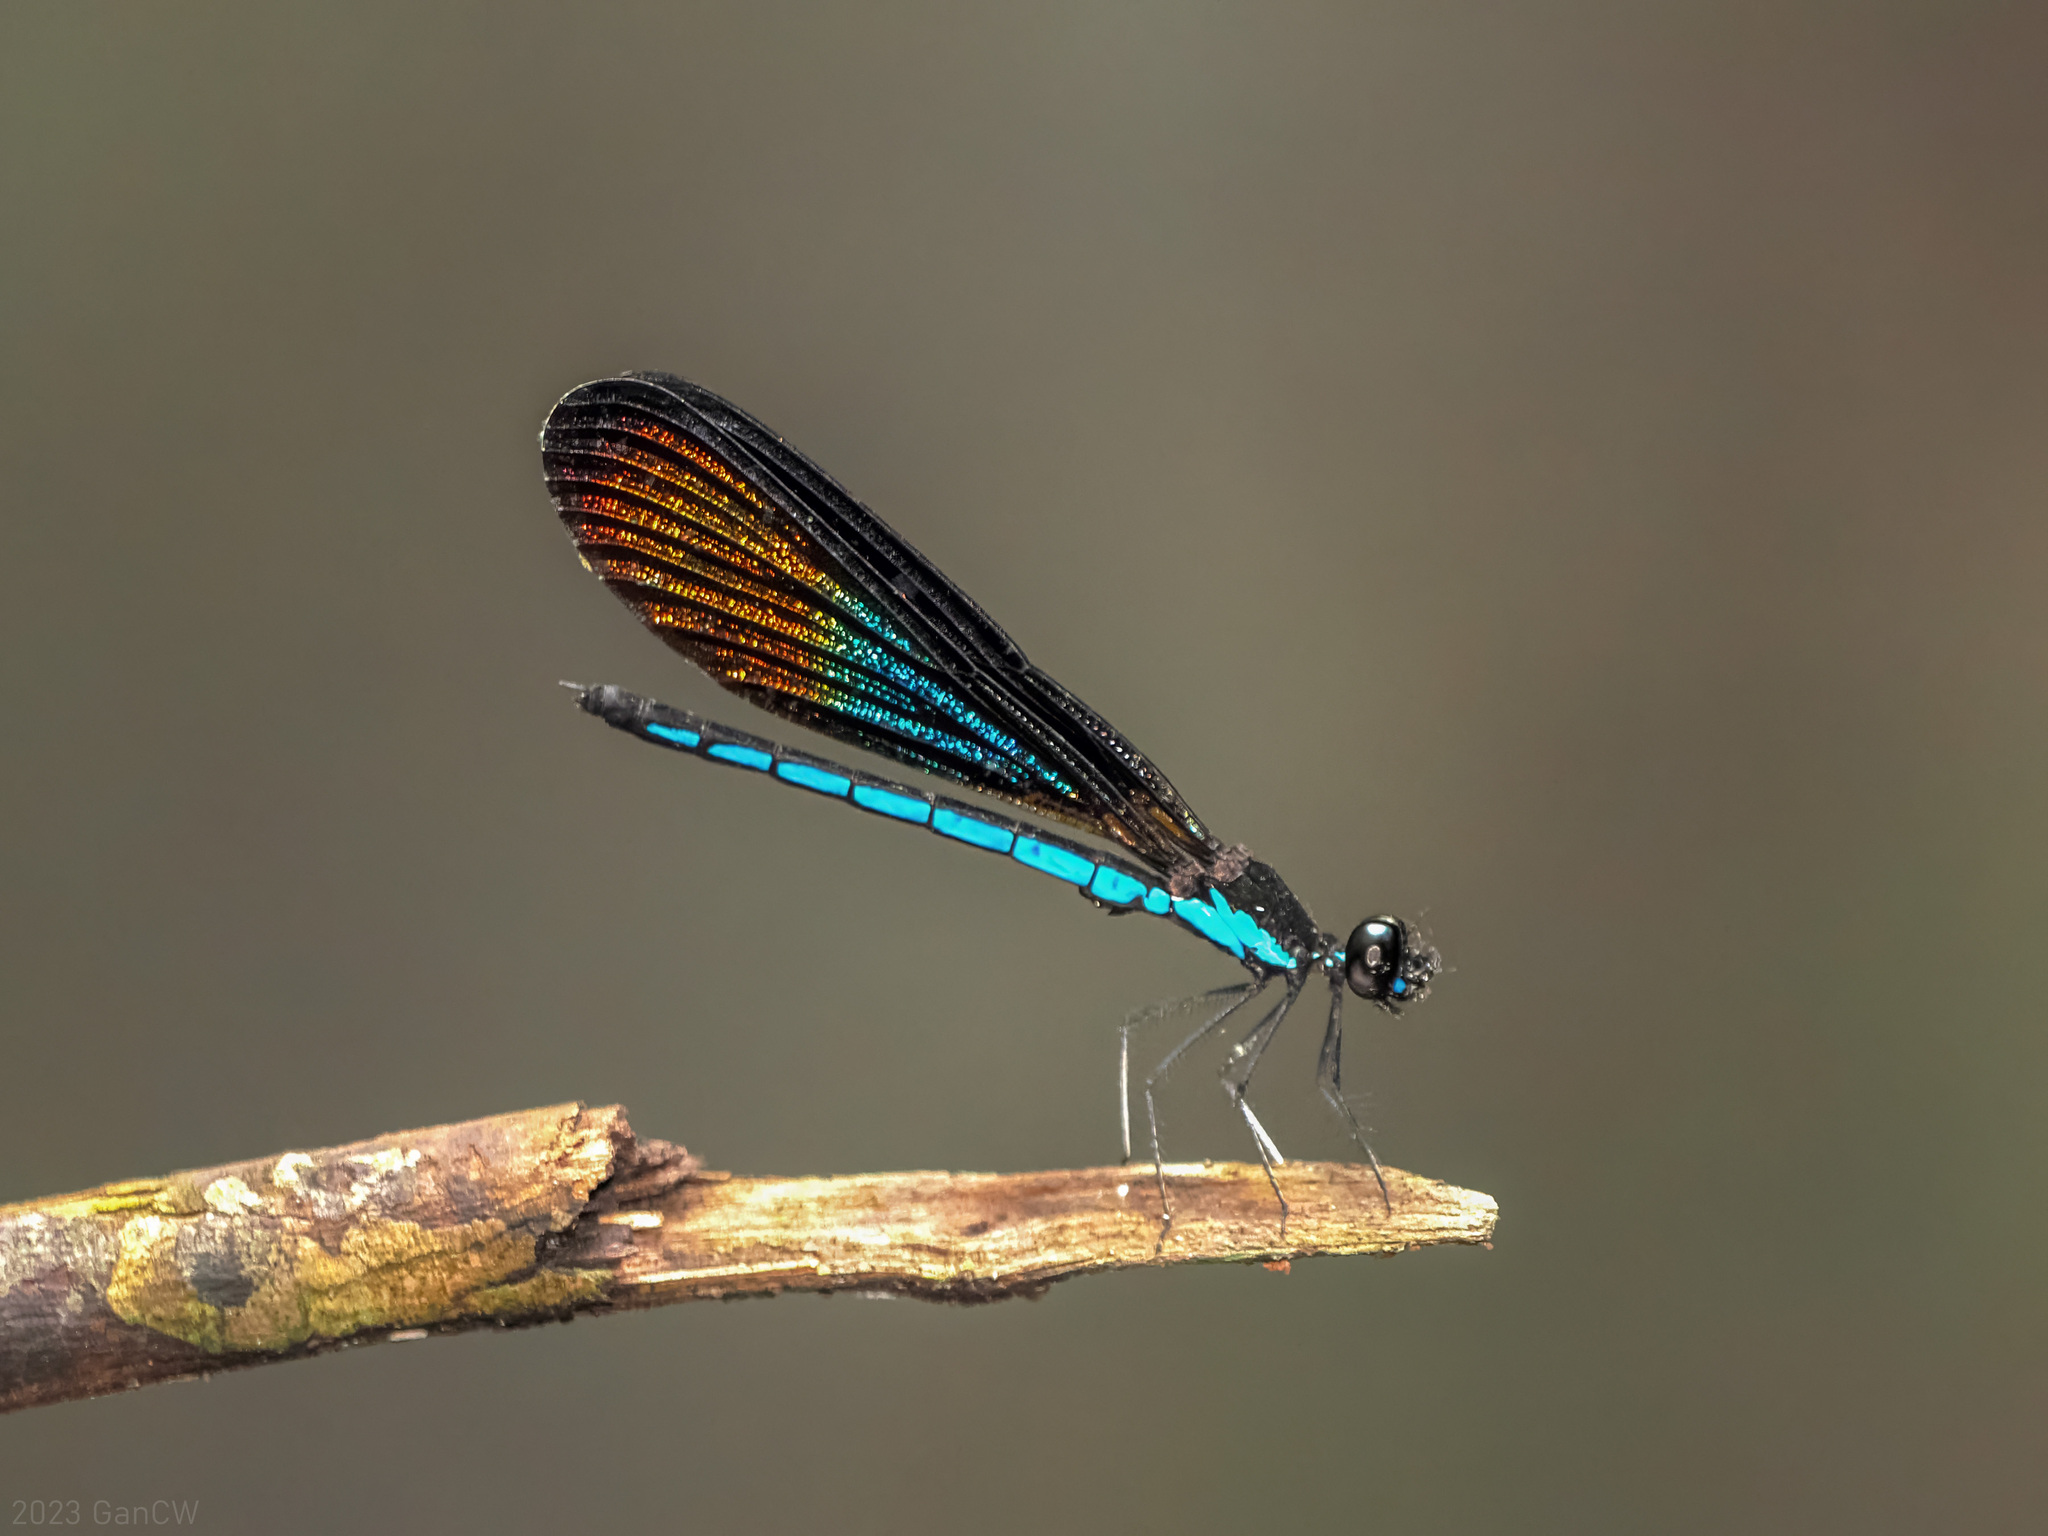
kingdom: Animalia
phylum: Arthropoda
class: Insecta
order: Odonata
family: Chlorocyphidae
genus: Rhinocypha
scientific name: Rhinocypha monochroa
